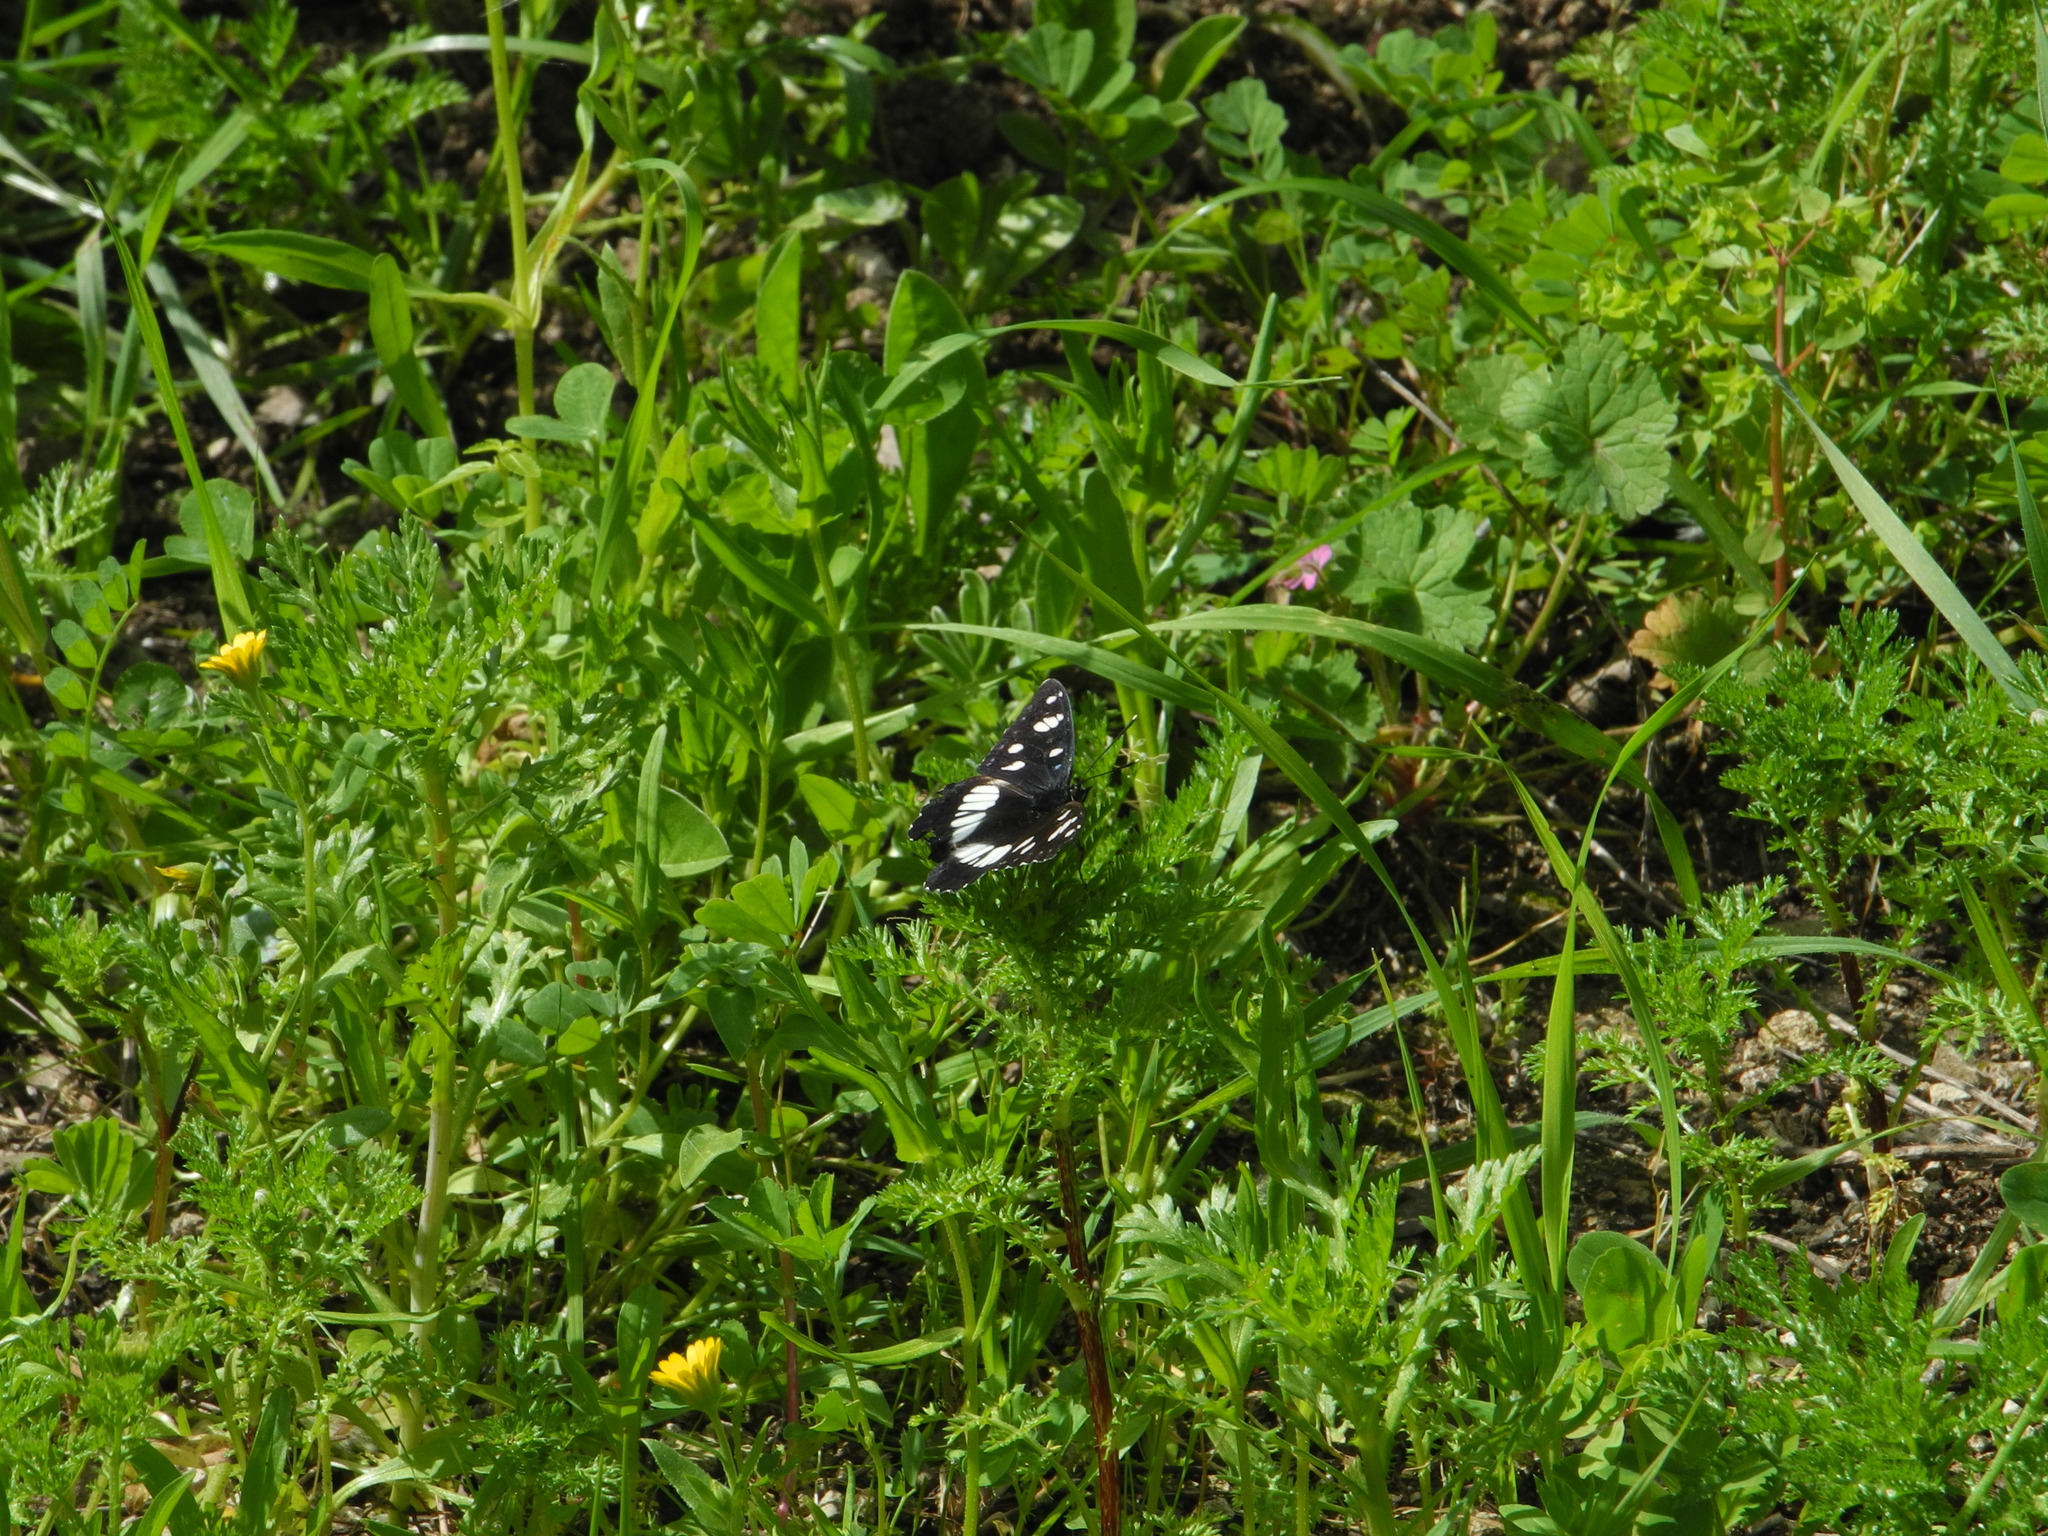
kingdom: Animalia
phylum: Arthropoda
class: Insecta
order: Lepidoptera
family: Nymphalidae
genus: Limenitis
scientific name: Limenitis reducta
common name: Southern white admiral
